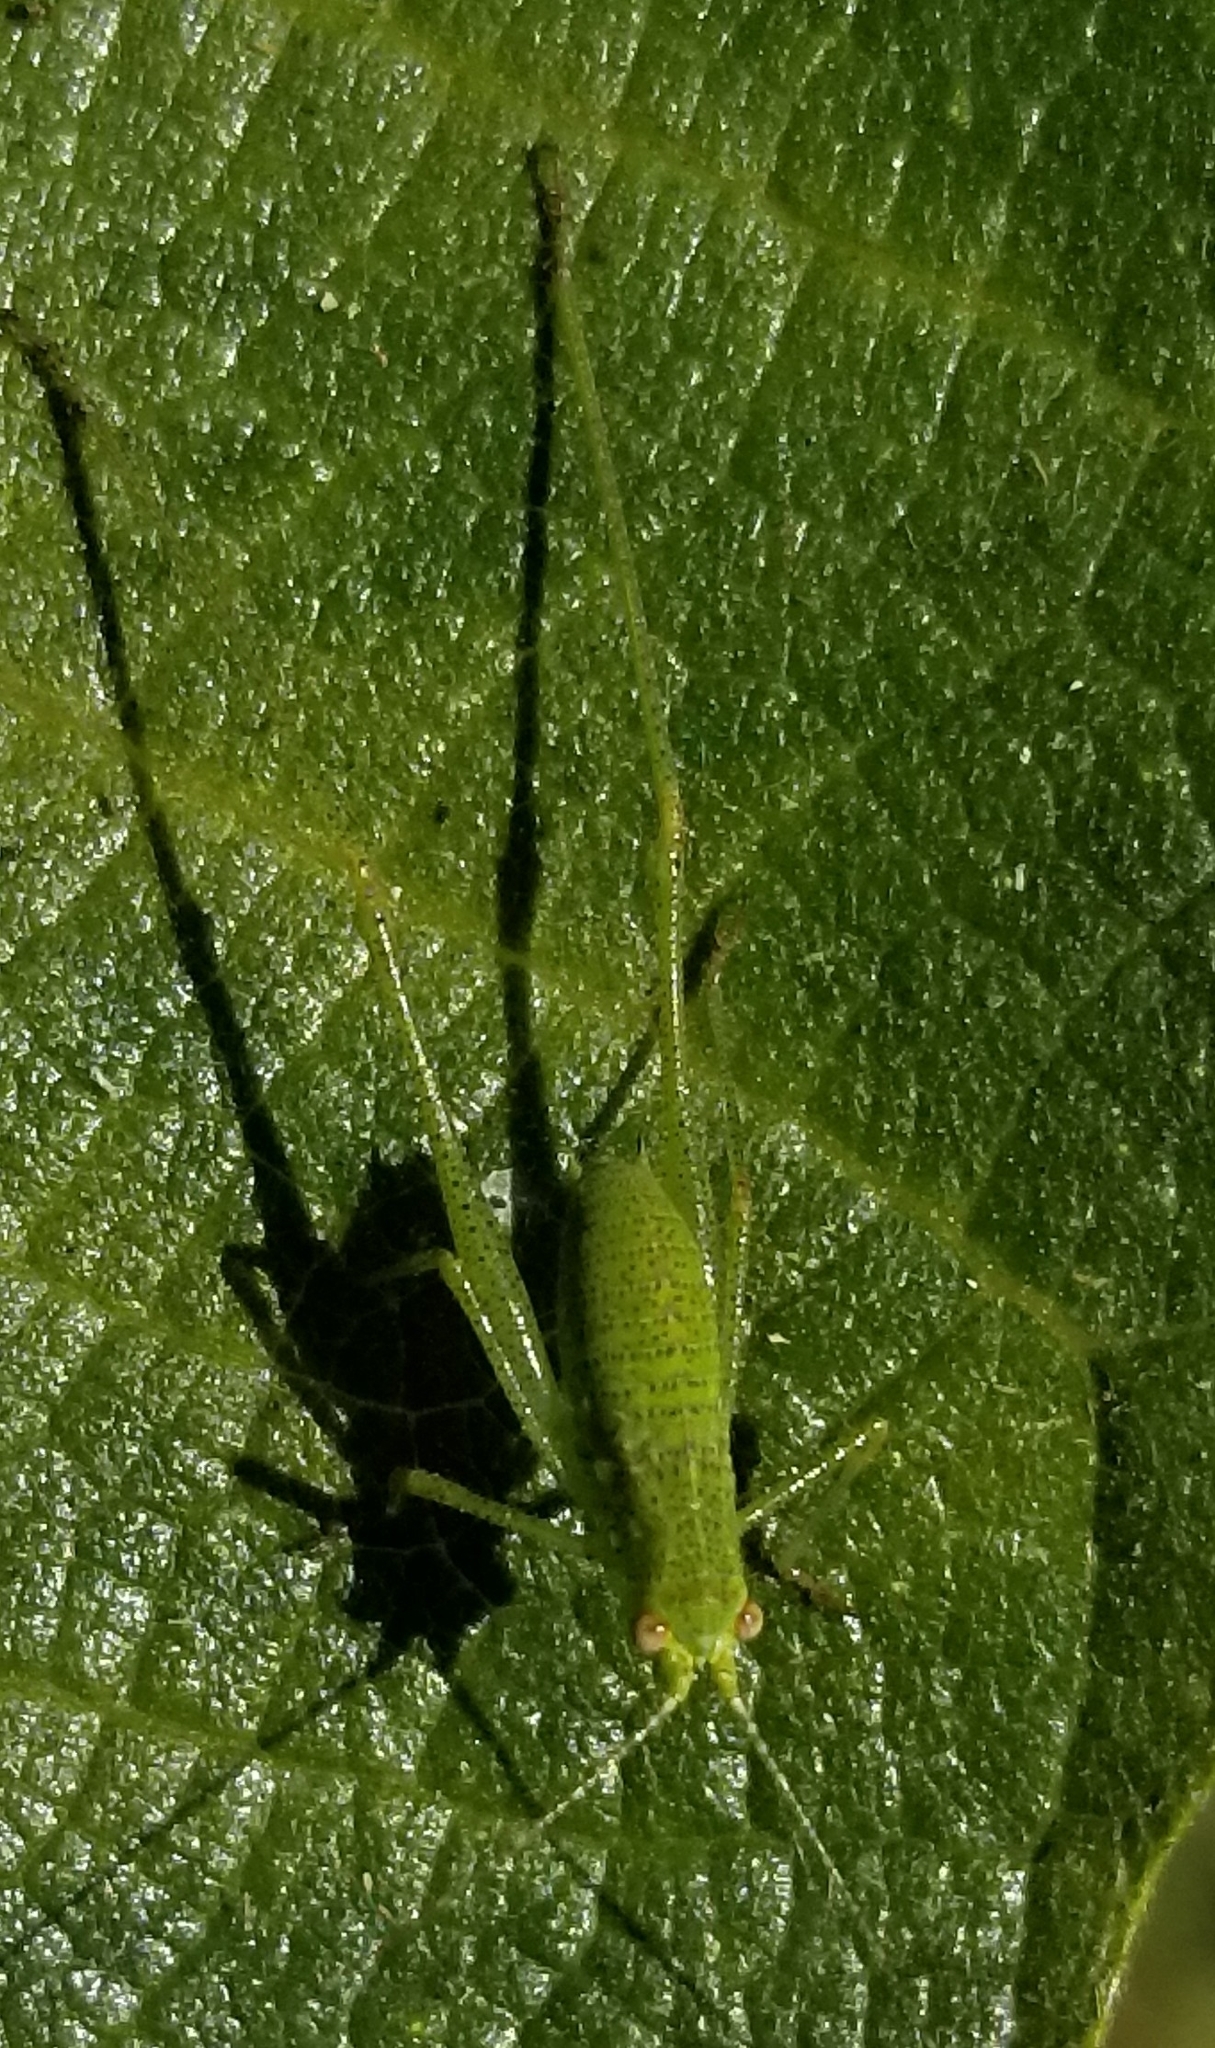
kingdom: Animalia
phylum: Arthropoda
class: Insecta
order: Orthoptera
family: Tettigoniidae
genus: Phaneroptera
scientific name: Phaneroptera nana
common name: Southern sickle bush-cricket
